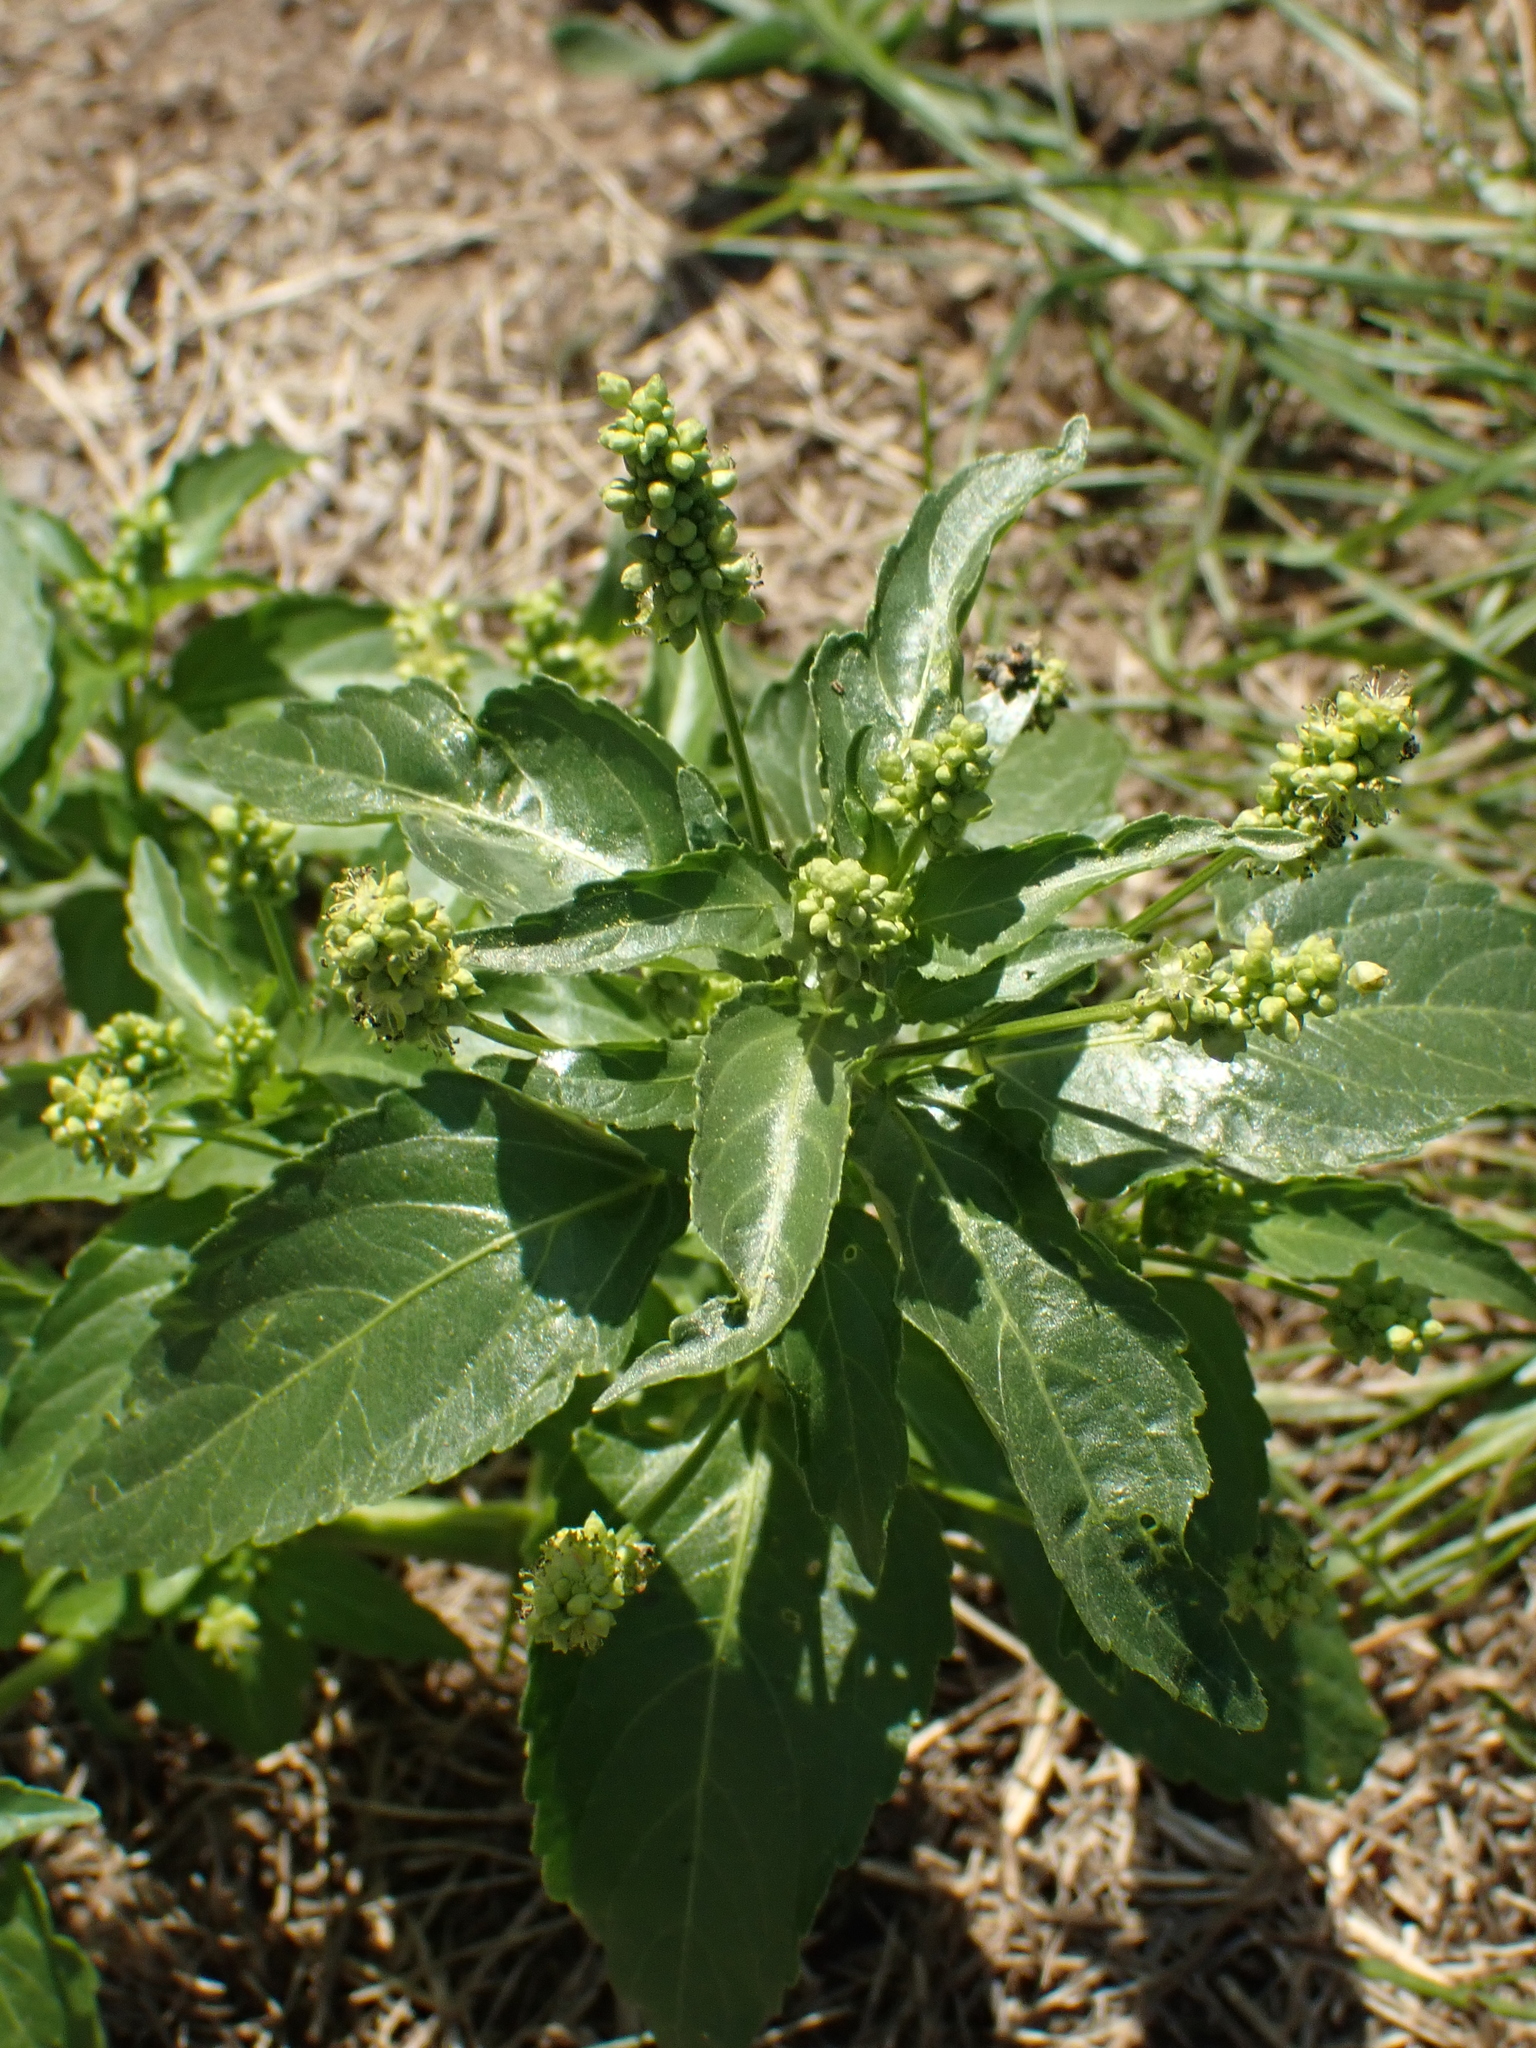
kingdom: Plantae
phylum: Tracheophyta
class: Magnoliopsida
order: Malpighiales
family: Euphorbiaceae
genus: Mercurialis
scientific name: Mercurialis annua
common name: Annual mercury
